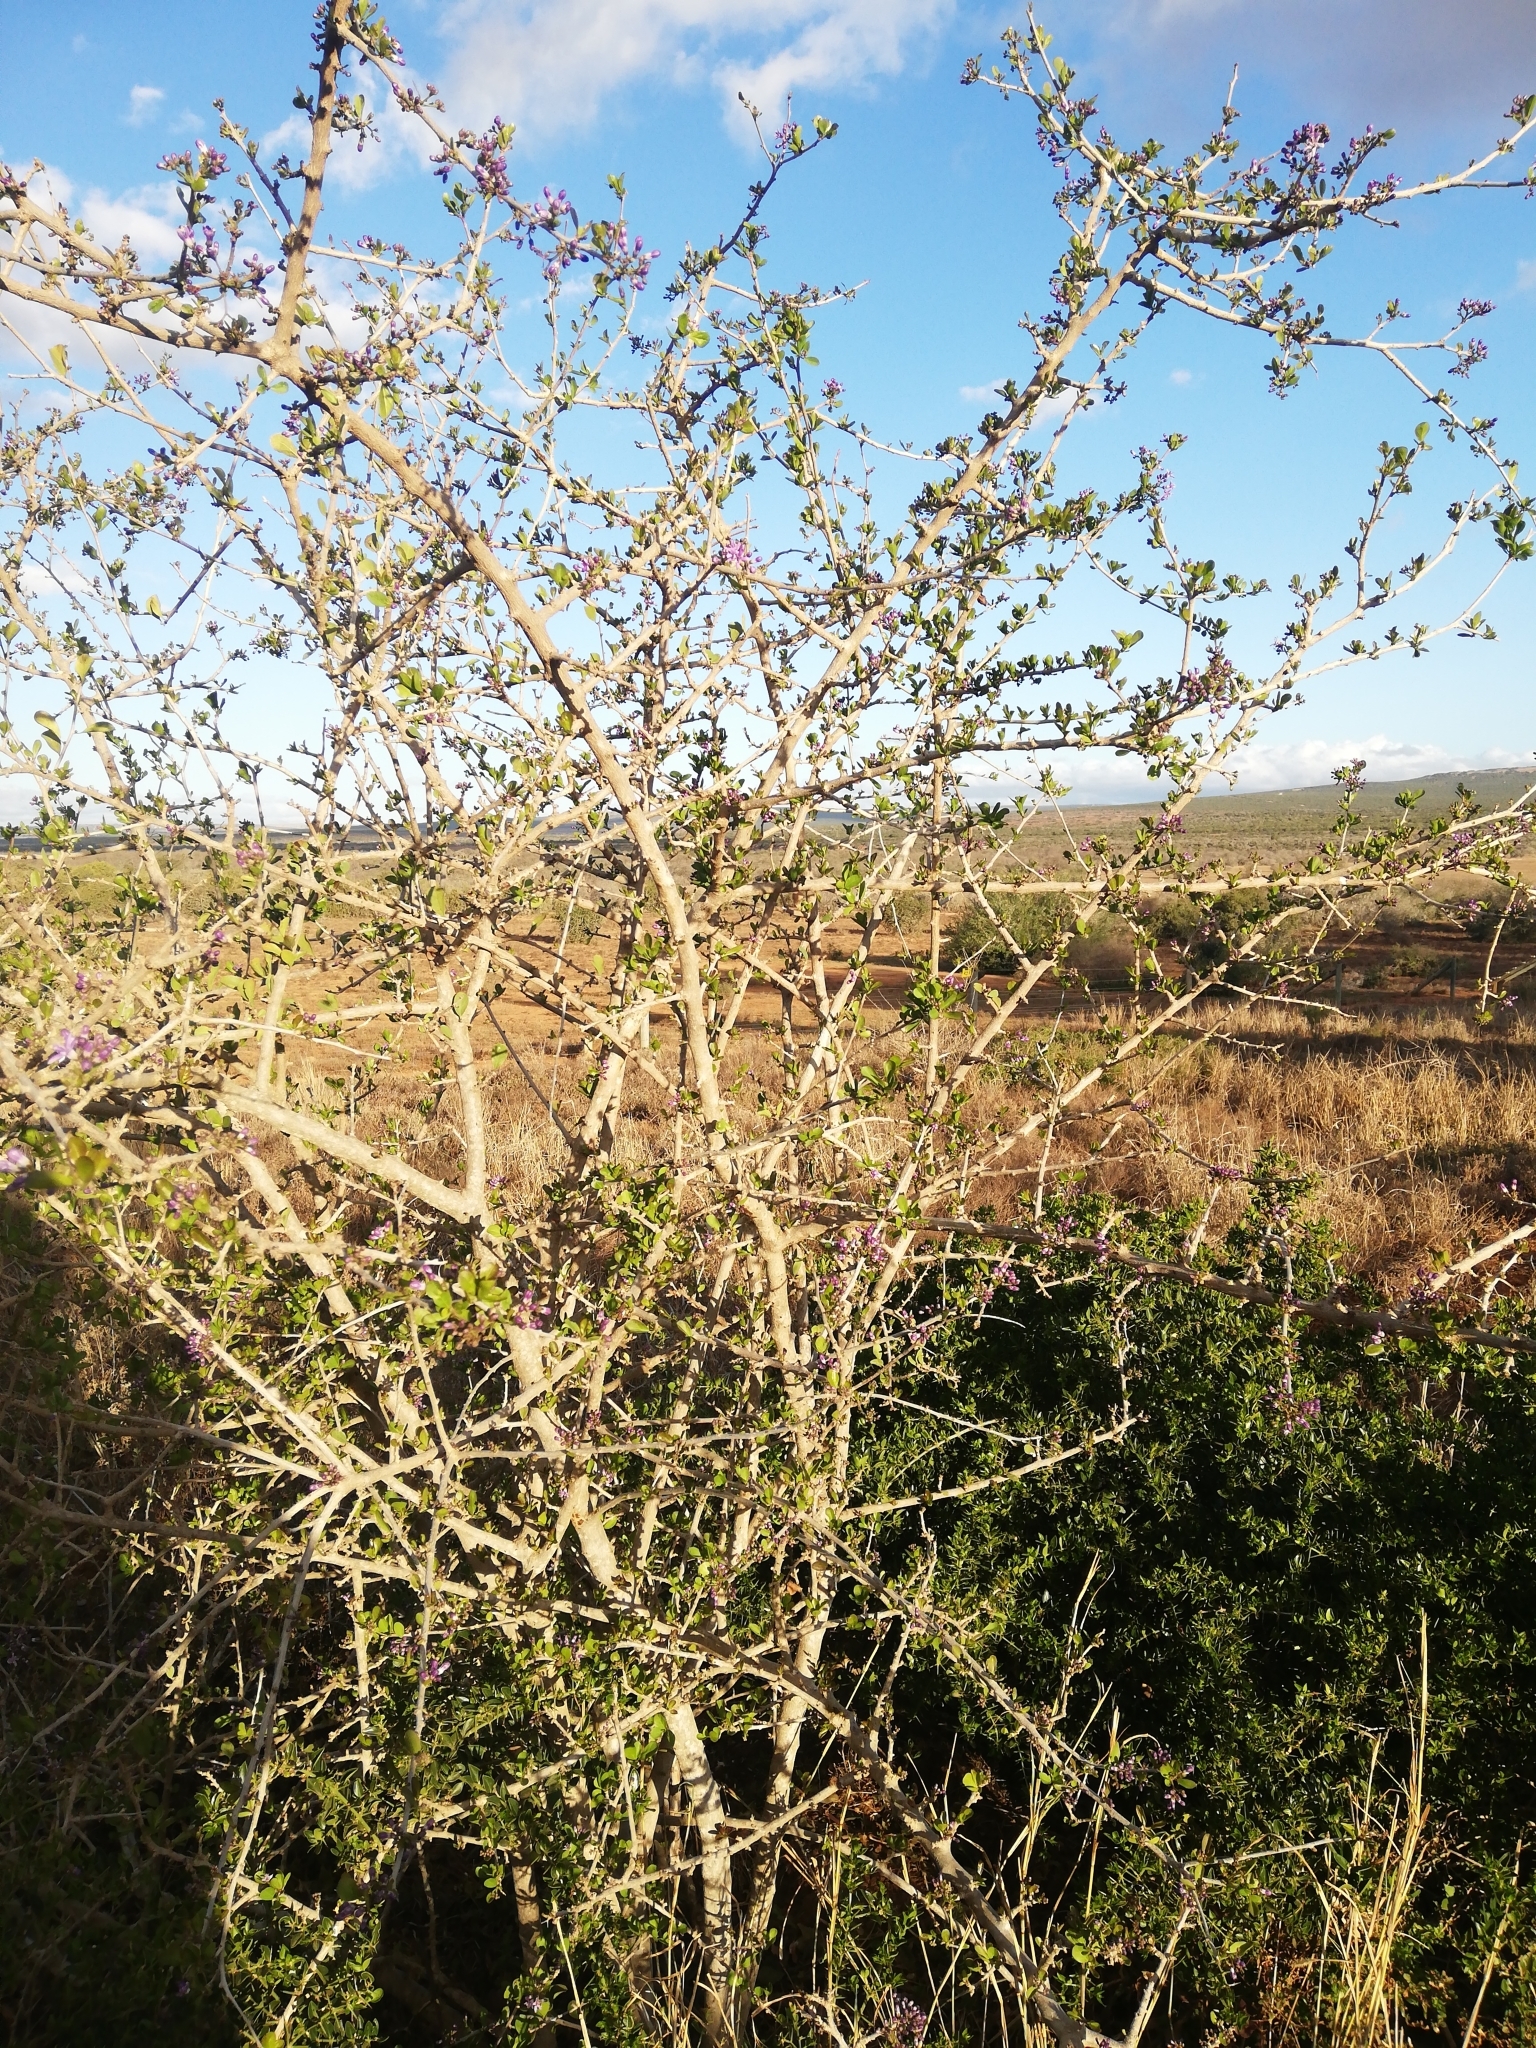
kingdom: Plantae
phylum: Tracheophyta
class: Magnoliopsida
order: Boraginales
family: Ehretiaceae
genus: Ehretia
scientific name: Ehretia rigida
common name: Cape lilac
